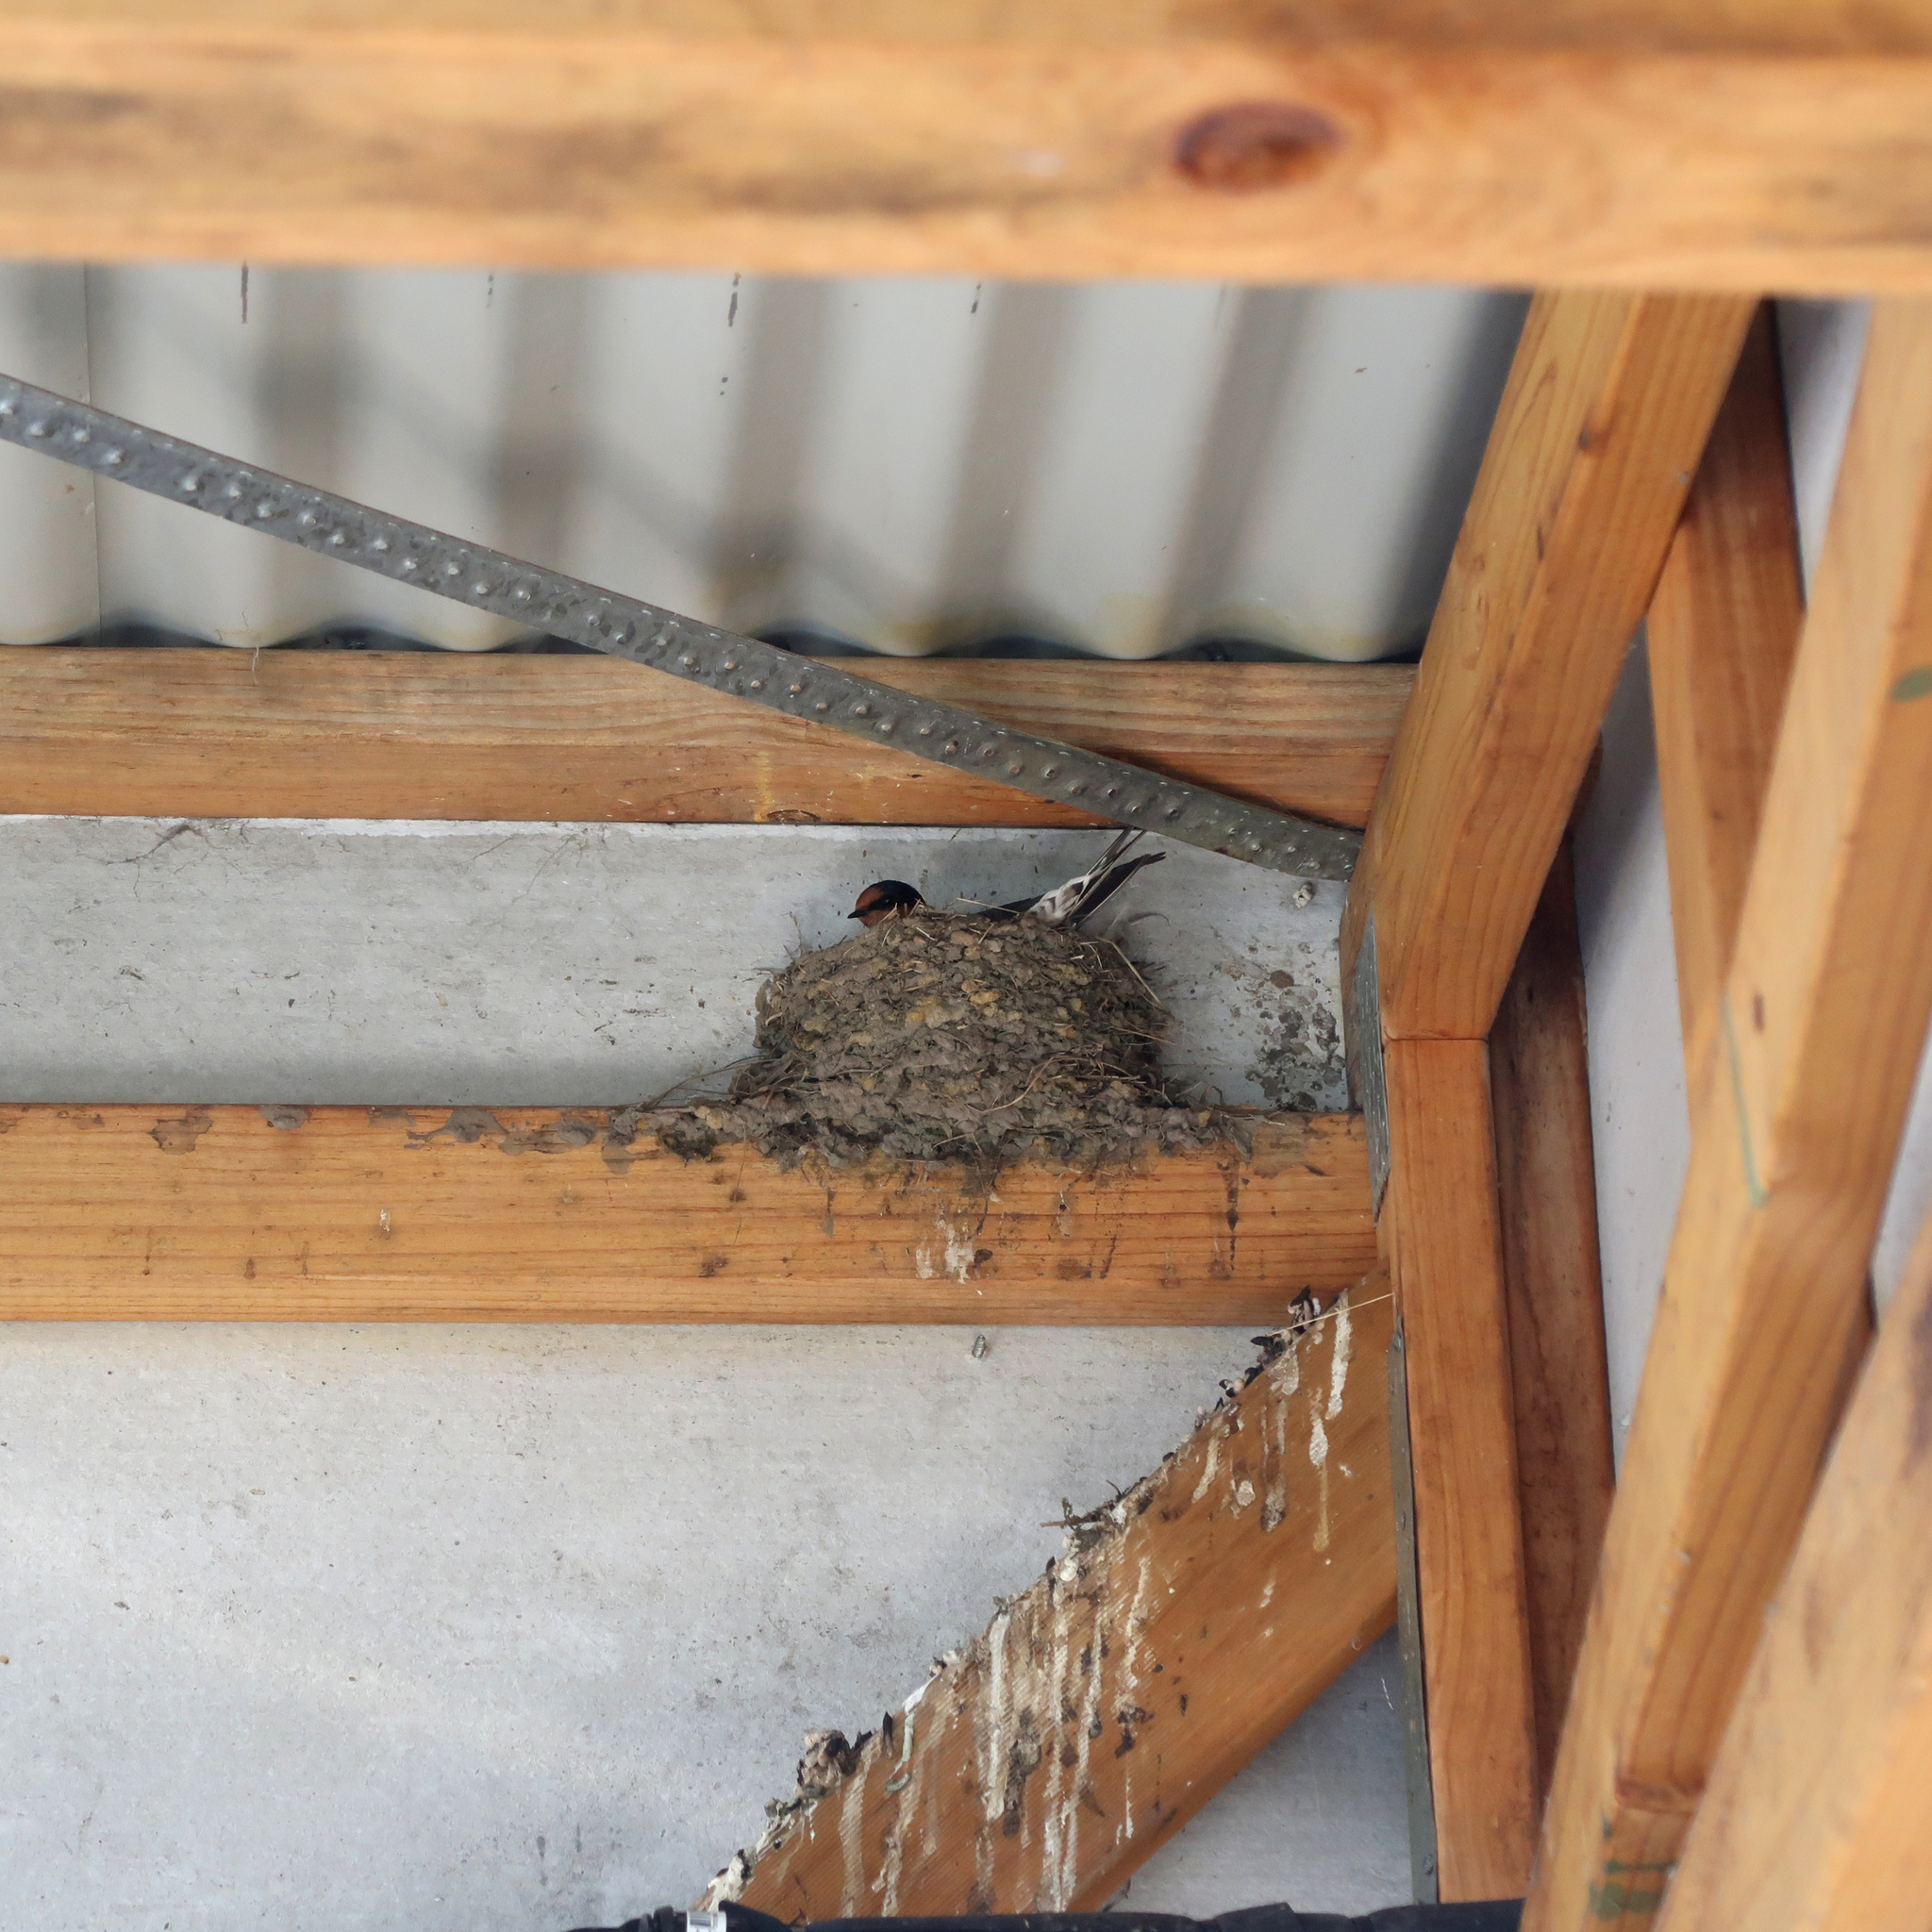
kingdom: Animalia
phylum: Chordata
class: Aves
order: Passeriformes
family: Hirundinidae
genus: Hirundo
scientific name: Hirundo neoxena
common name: Welcome swallow
